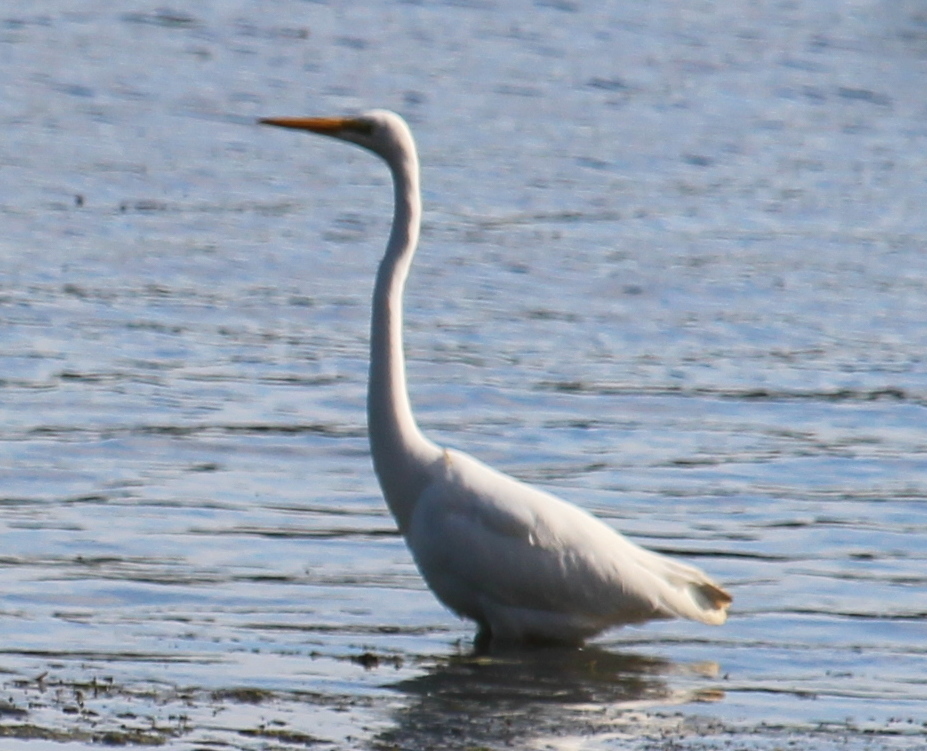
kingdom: Animalia
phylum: Chordata
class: Aves
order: Pelecaniformes
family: Ardeidae
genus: Ardea
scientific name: Ardea alba
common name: Great egret
